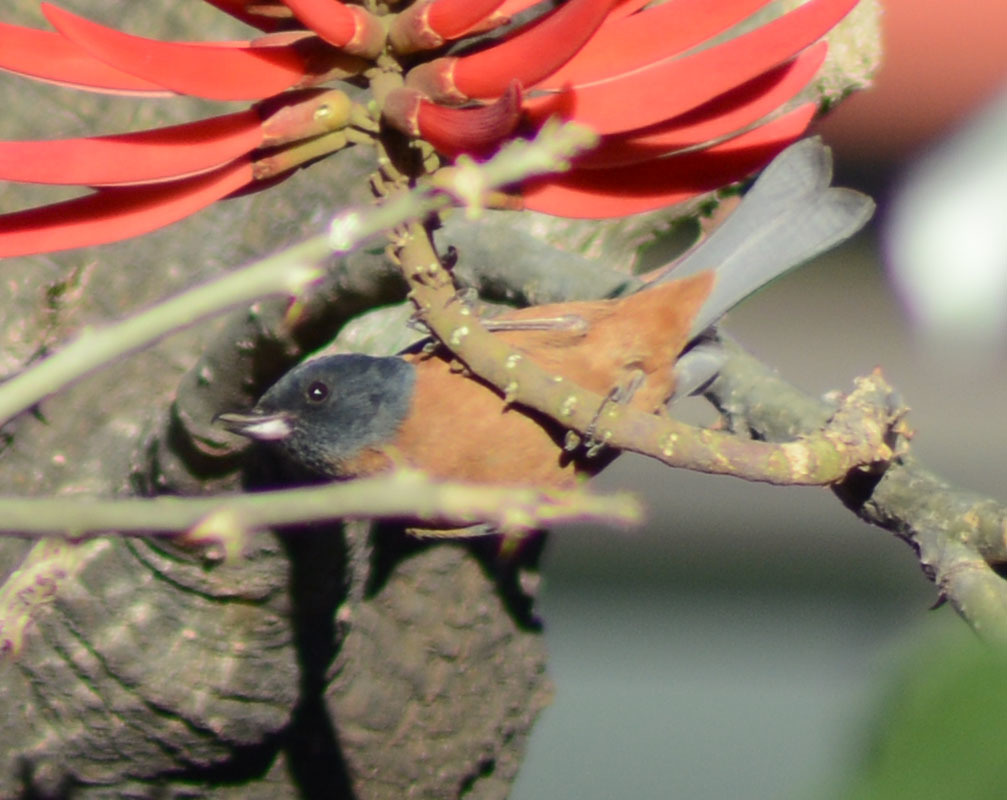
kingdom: Animalia
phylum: Chordata
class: Aves
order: Passeriformes
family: Thraupidae
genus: Diglossa
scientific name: Diglossa baritula
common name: Cinnamon-bellied flowerpiercer
